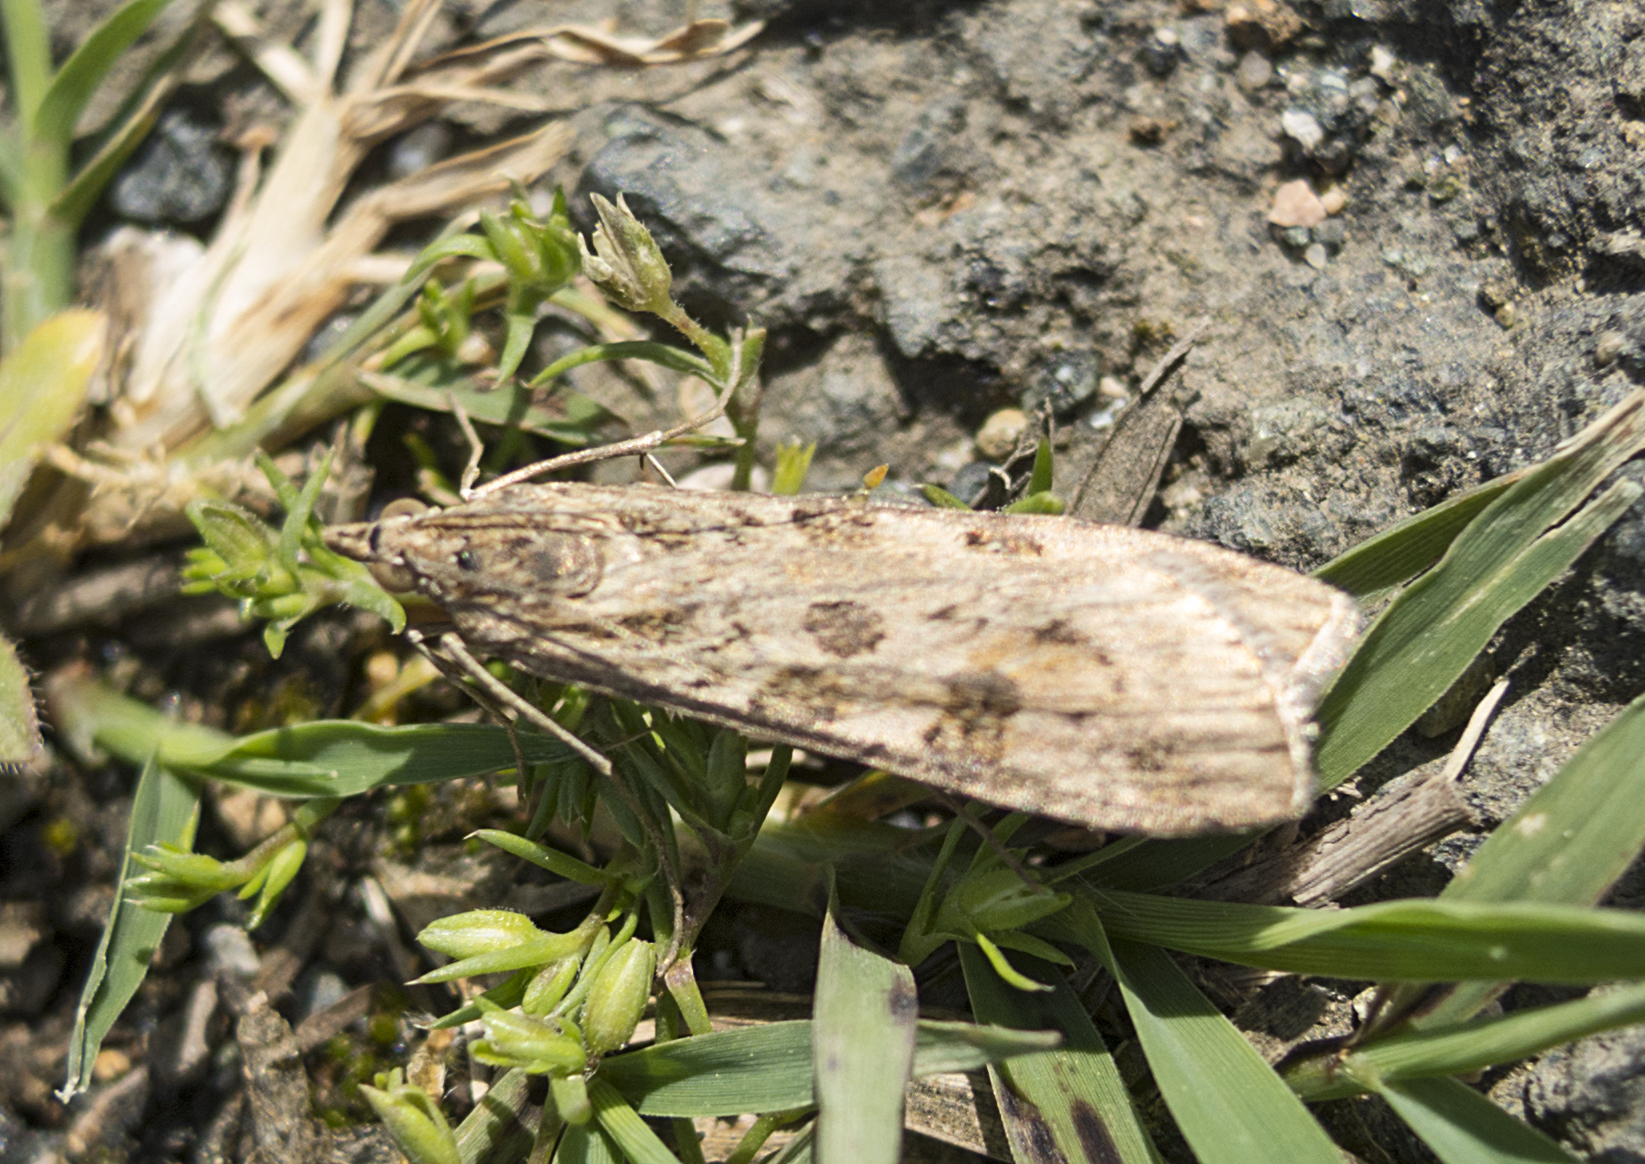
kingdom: Animalia
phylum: Arthropoda
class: Insecta
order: Lepidoptera
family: Crambidae
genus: Nomophila
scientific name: Nomophila noctuella
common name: Rush veneer
